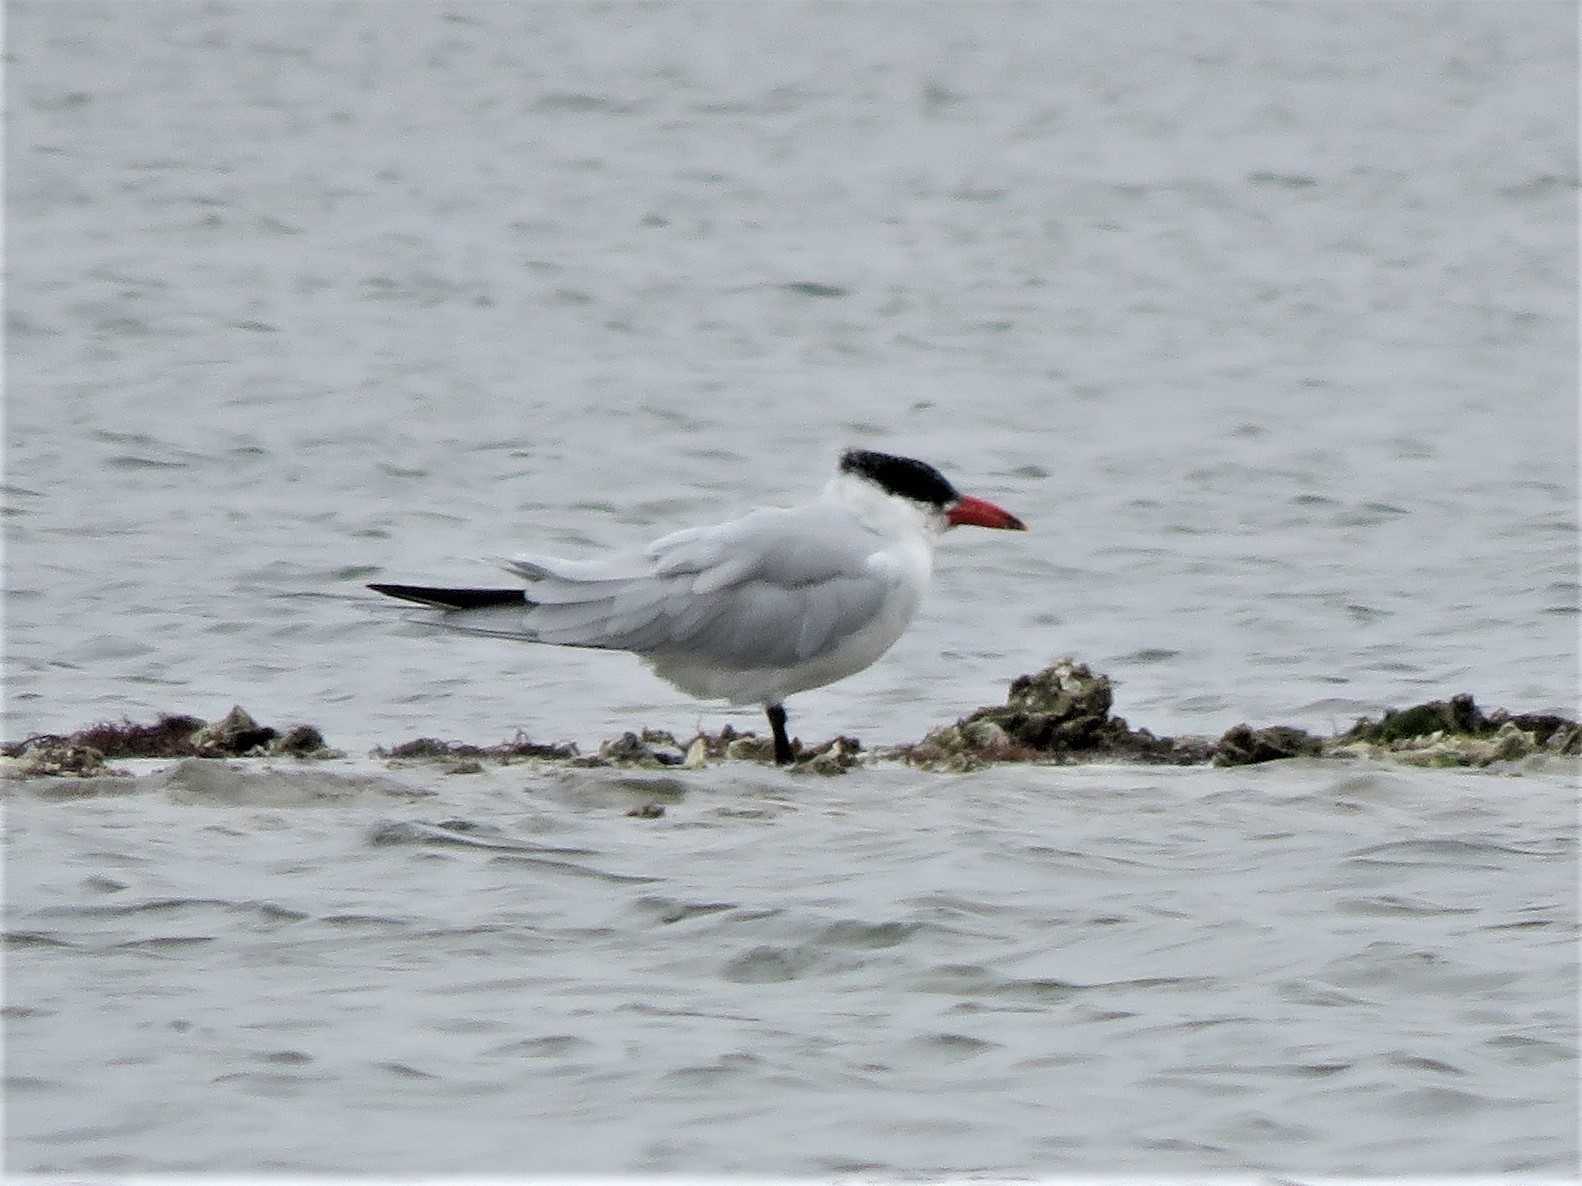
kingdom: Animalia
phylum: Chordata
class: Aves
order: Charadriiformes
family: Laridae
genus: Hydroprogne
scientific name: Hydroprogne caspia
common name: Caspian tern
